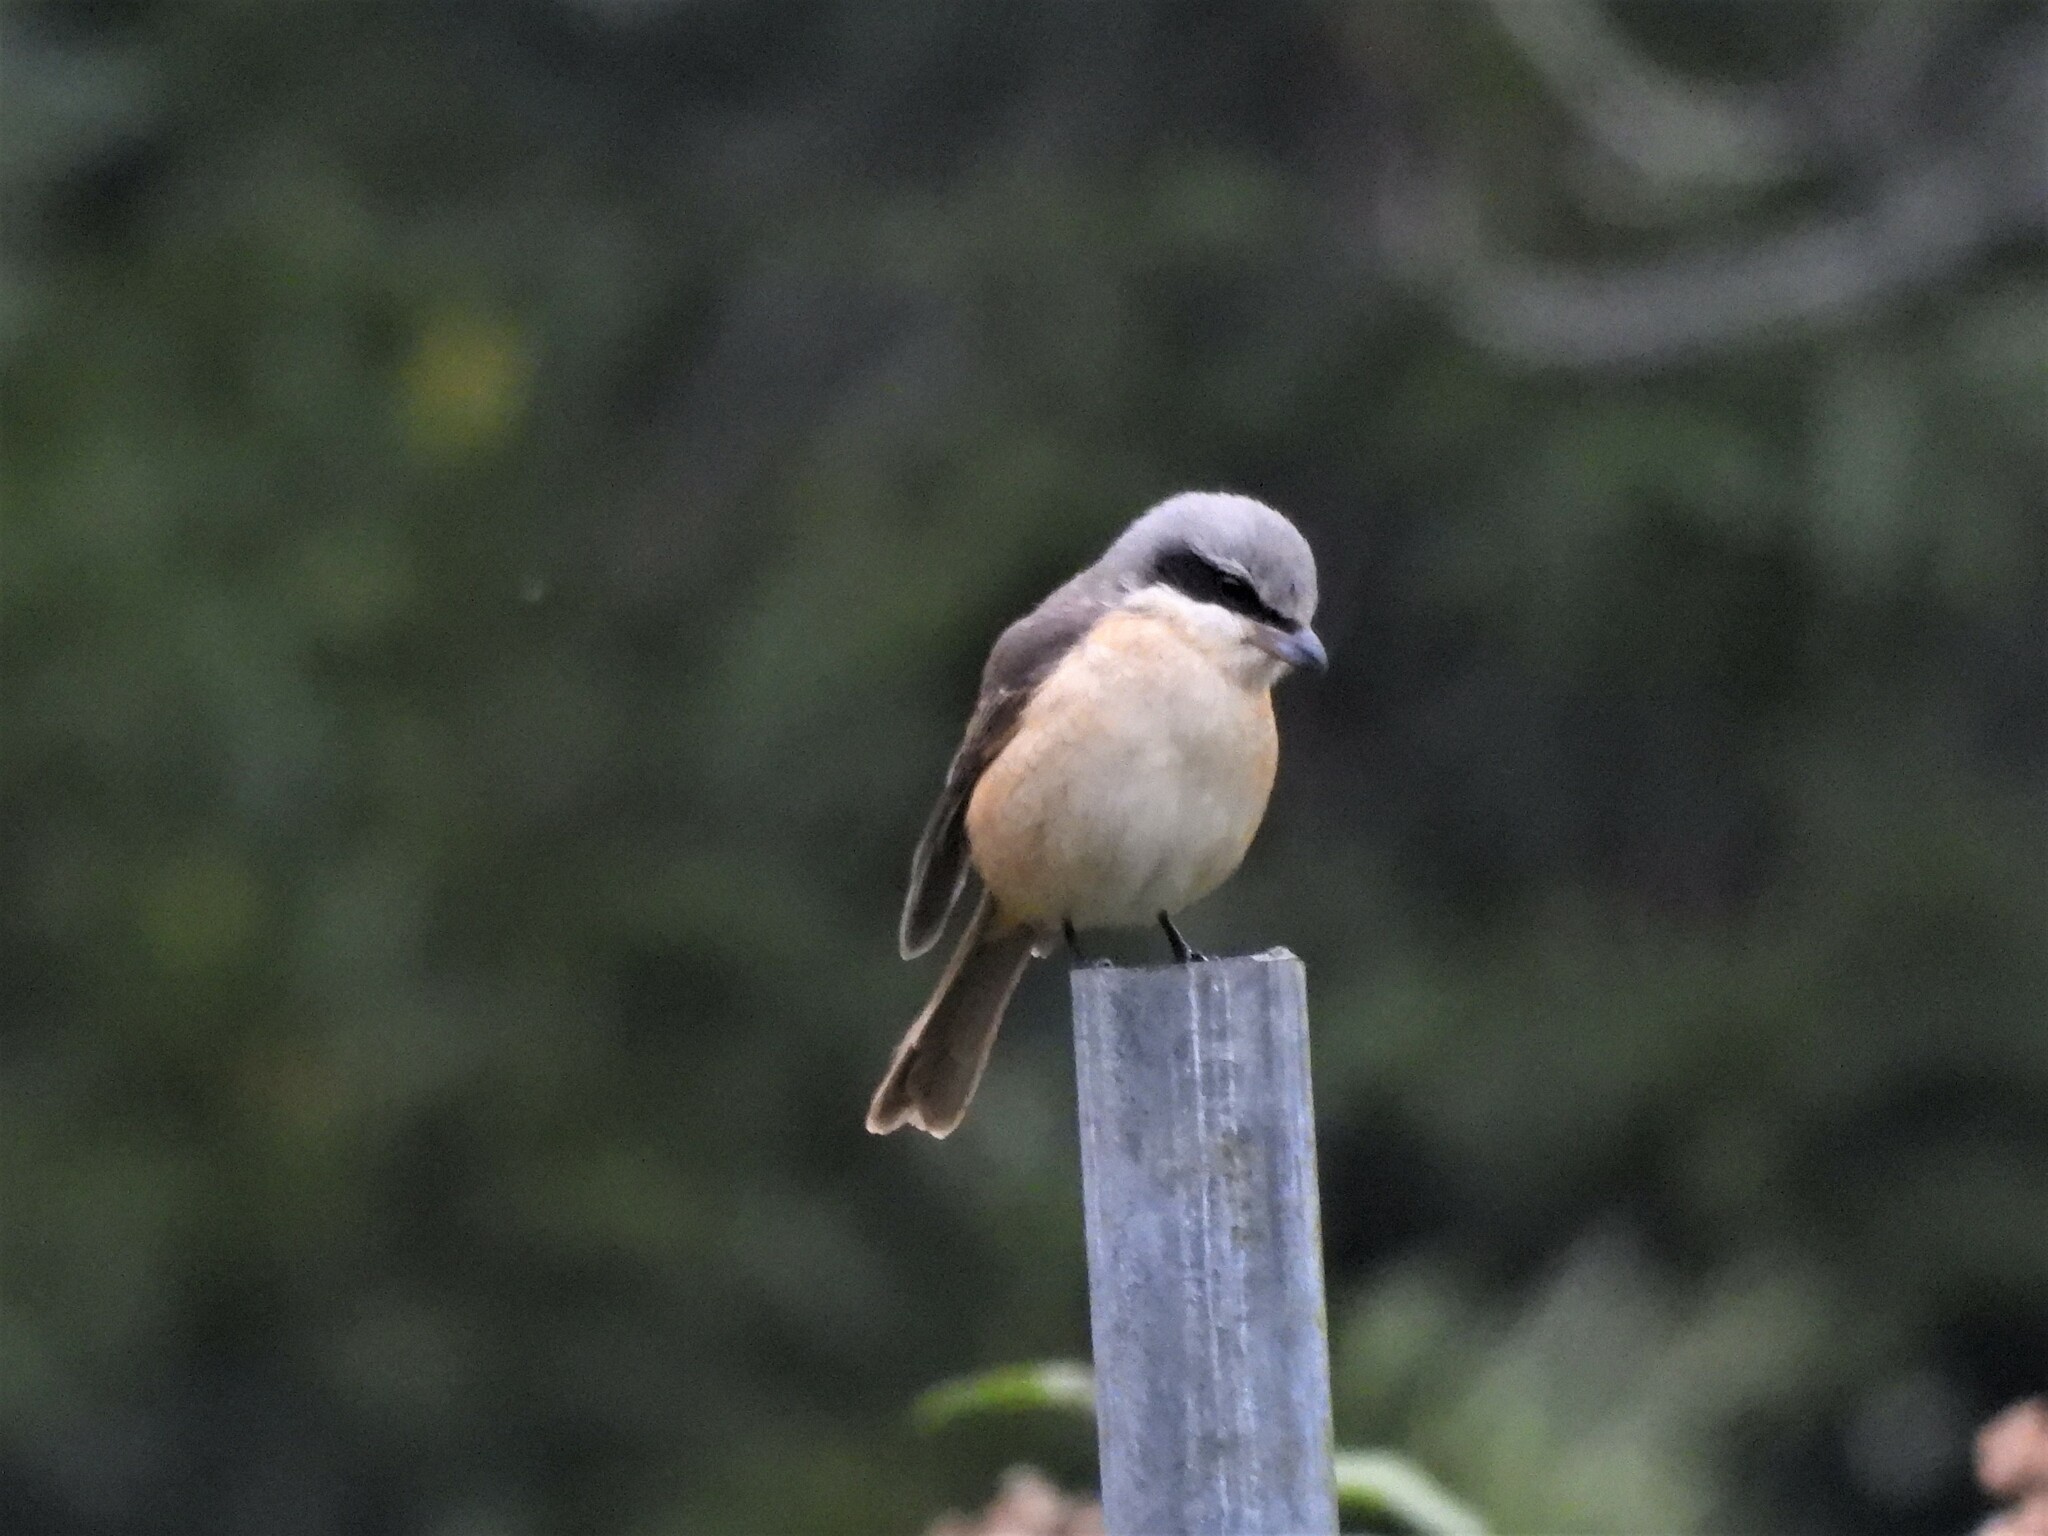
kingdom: Animalia
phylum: Chordata
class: Aves
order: Passeriformes
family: Laniidae
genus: Lanius
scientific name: Lanius cristatus
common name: Brown shrike
